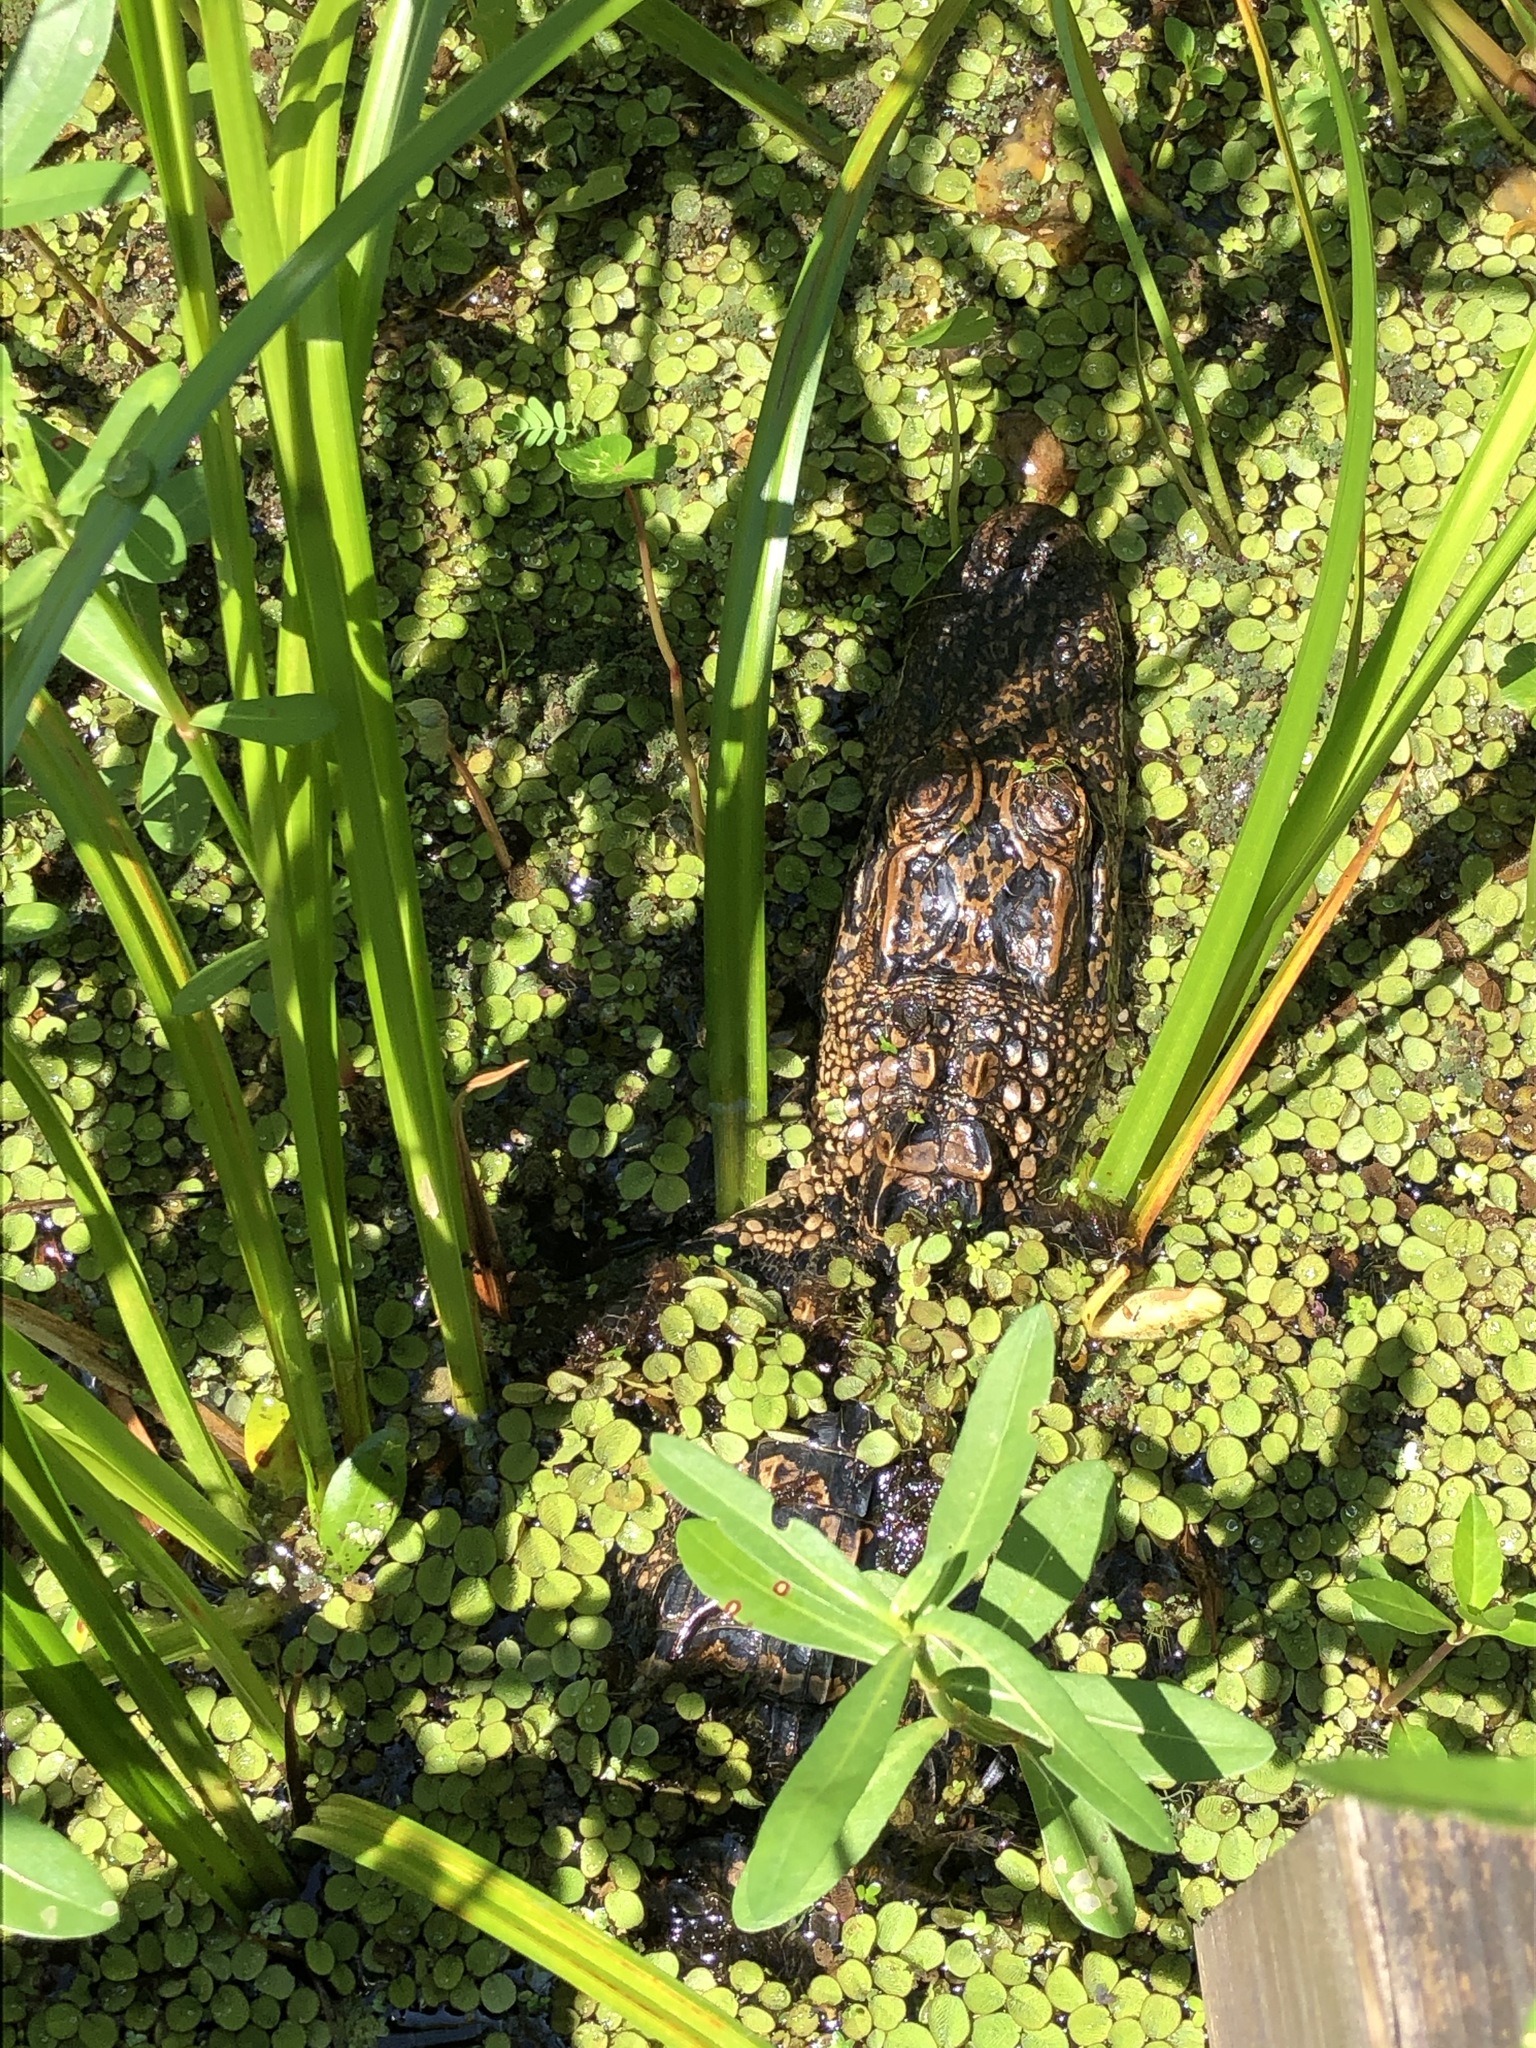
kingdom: Animalia
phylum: Chordata
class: Crocodylia
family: Alligatoridae
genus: Alligator
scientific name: Alligator mississippiensis
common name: American alligator
